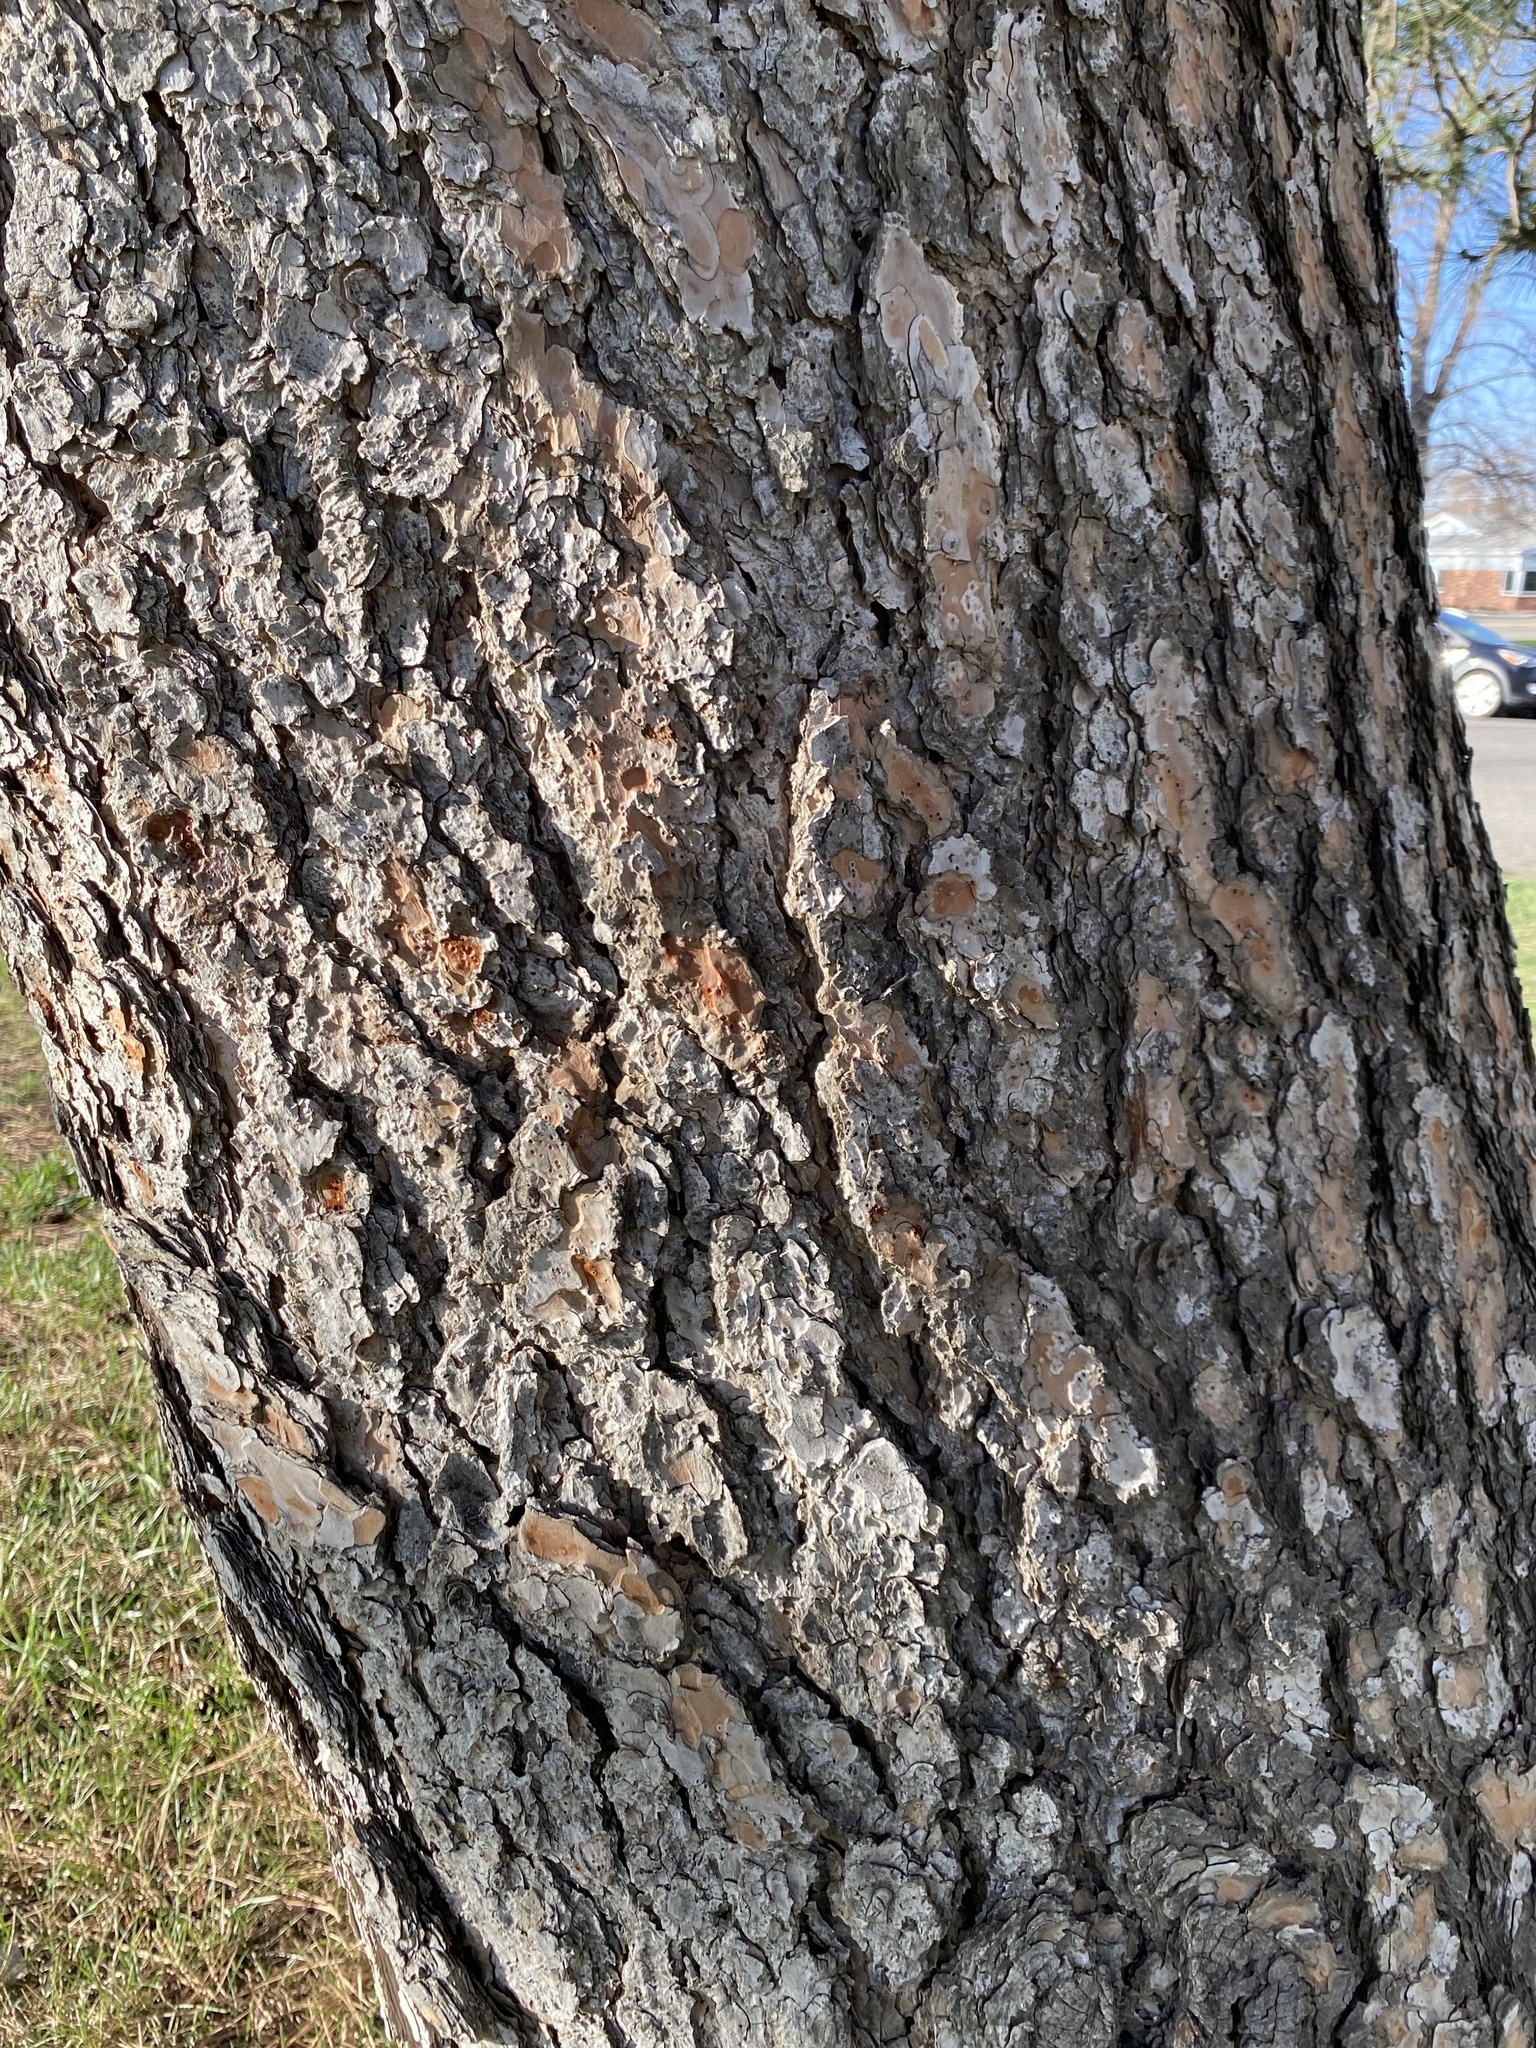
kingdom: Plantae
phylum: Tracheophyta
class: Pinopsida
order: Pinales
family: Pinaceae
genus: Pinus
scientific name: Pinus ponderosa
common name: Western yellow-pine
